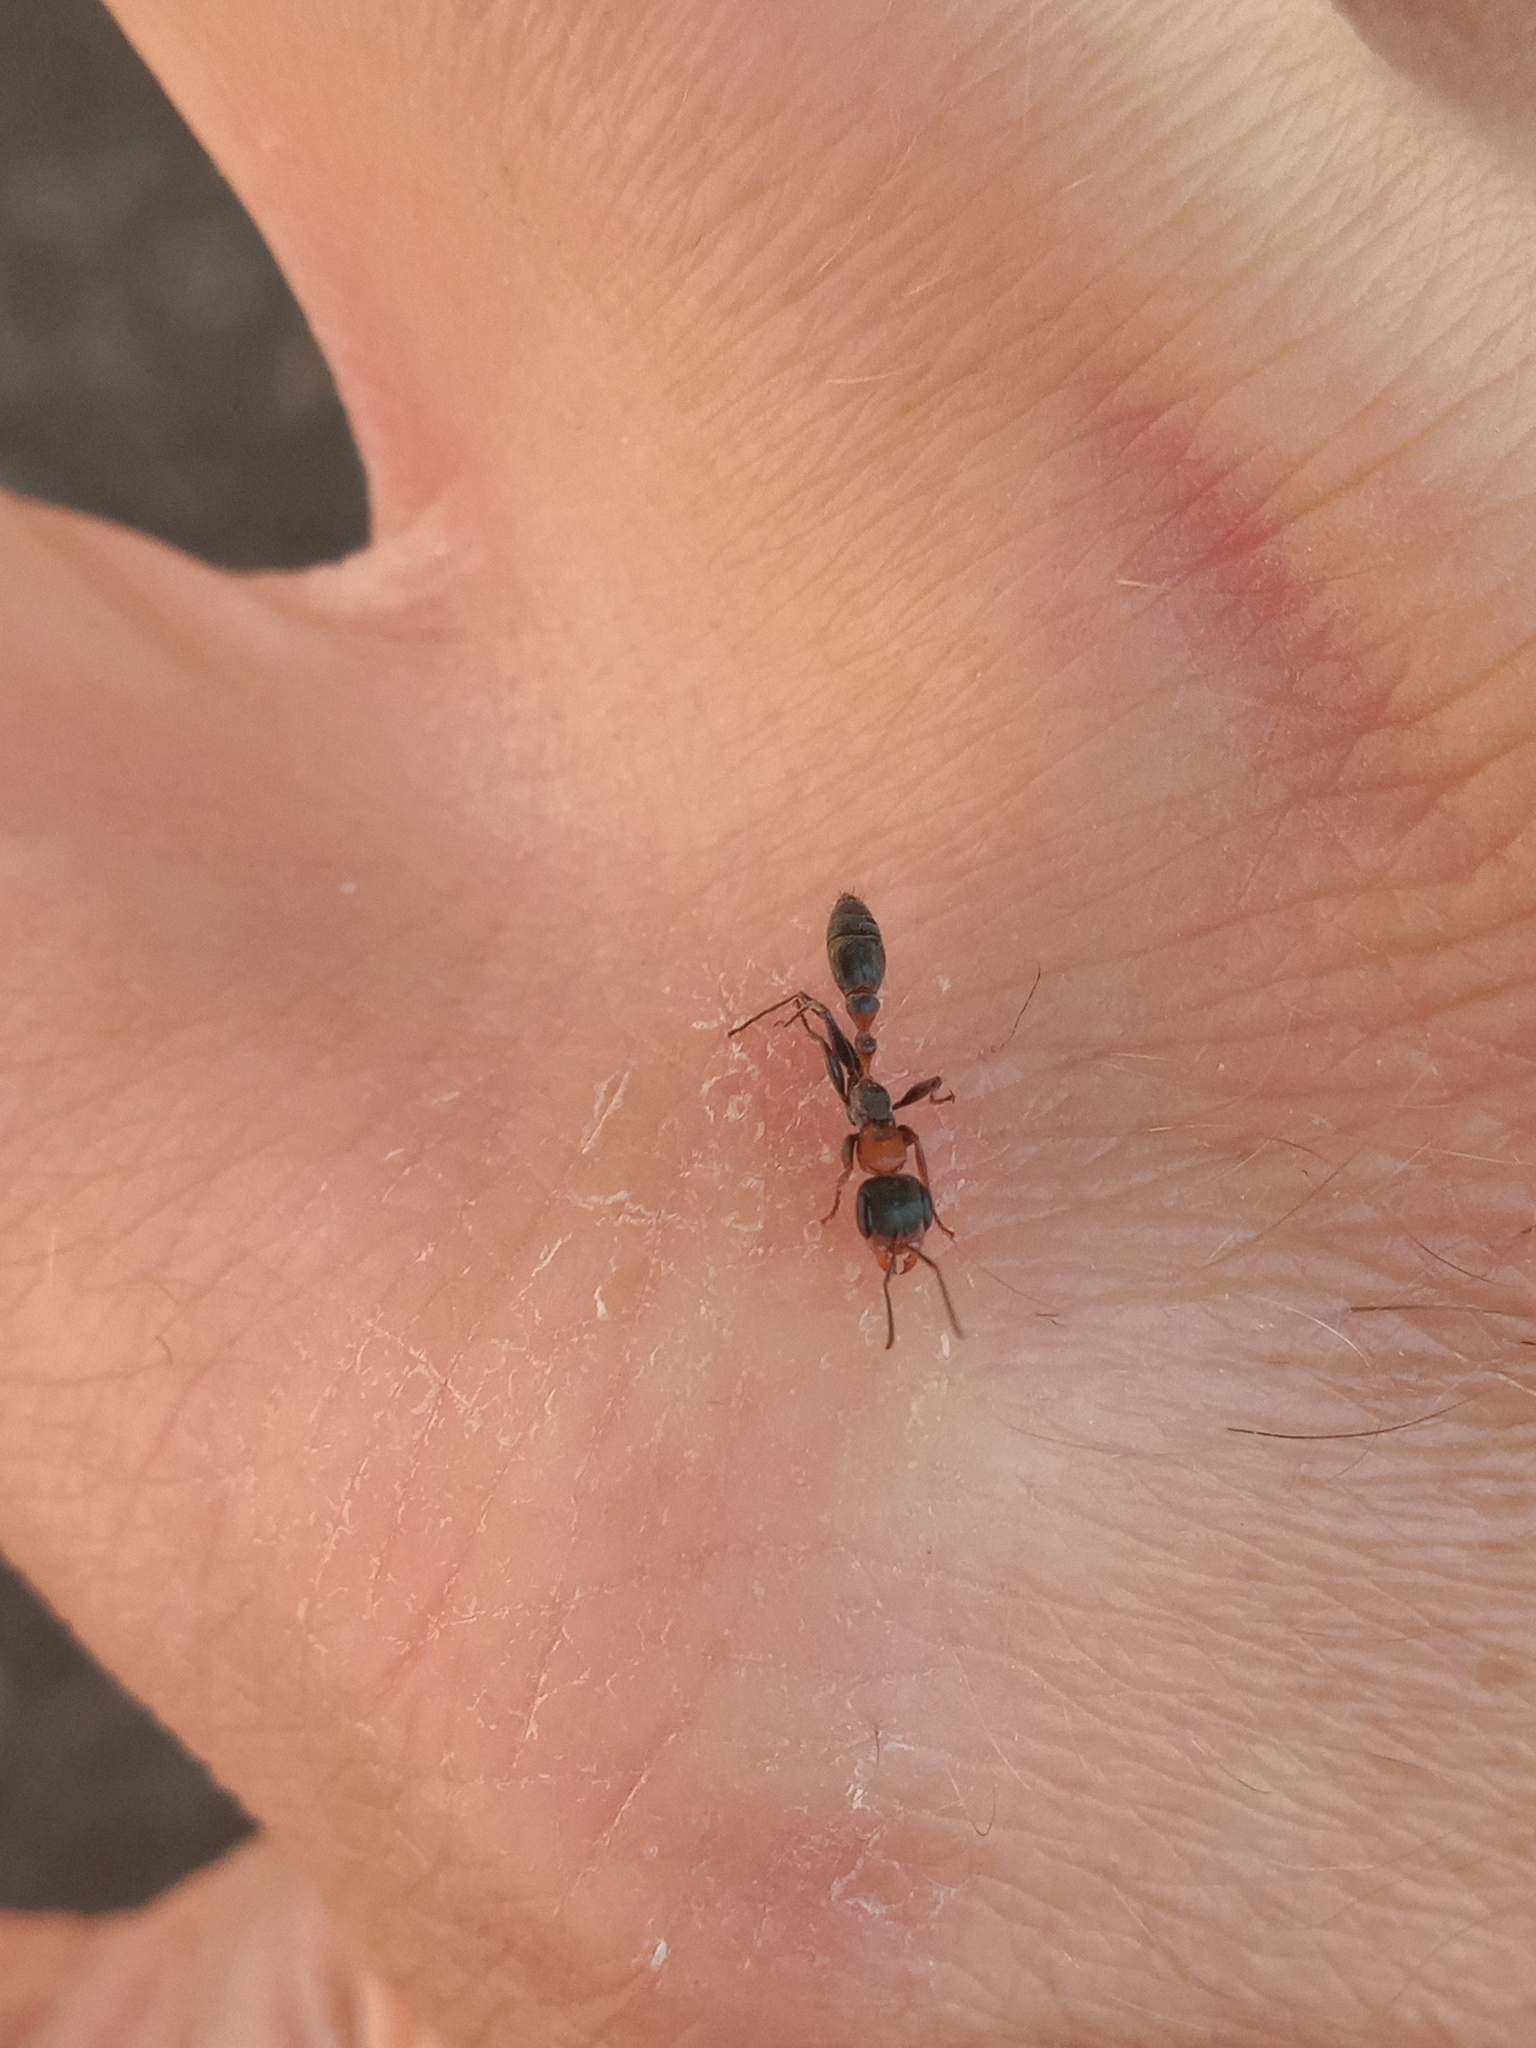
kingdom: Animalia
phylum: Arthropoda
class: Insecta
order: Hymenoptera
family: Formicidae
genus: Pseudomyrmex
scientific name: Pseudomyrmex gracilis
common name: Graceful twig ant
